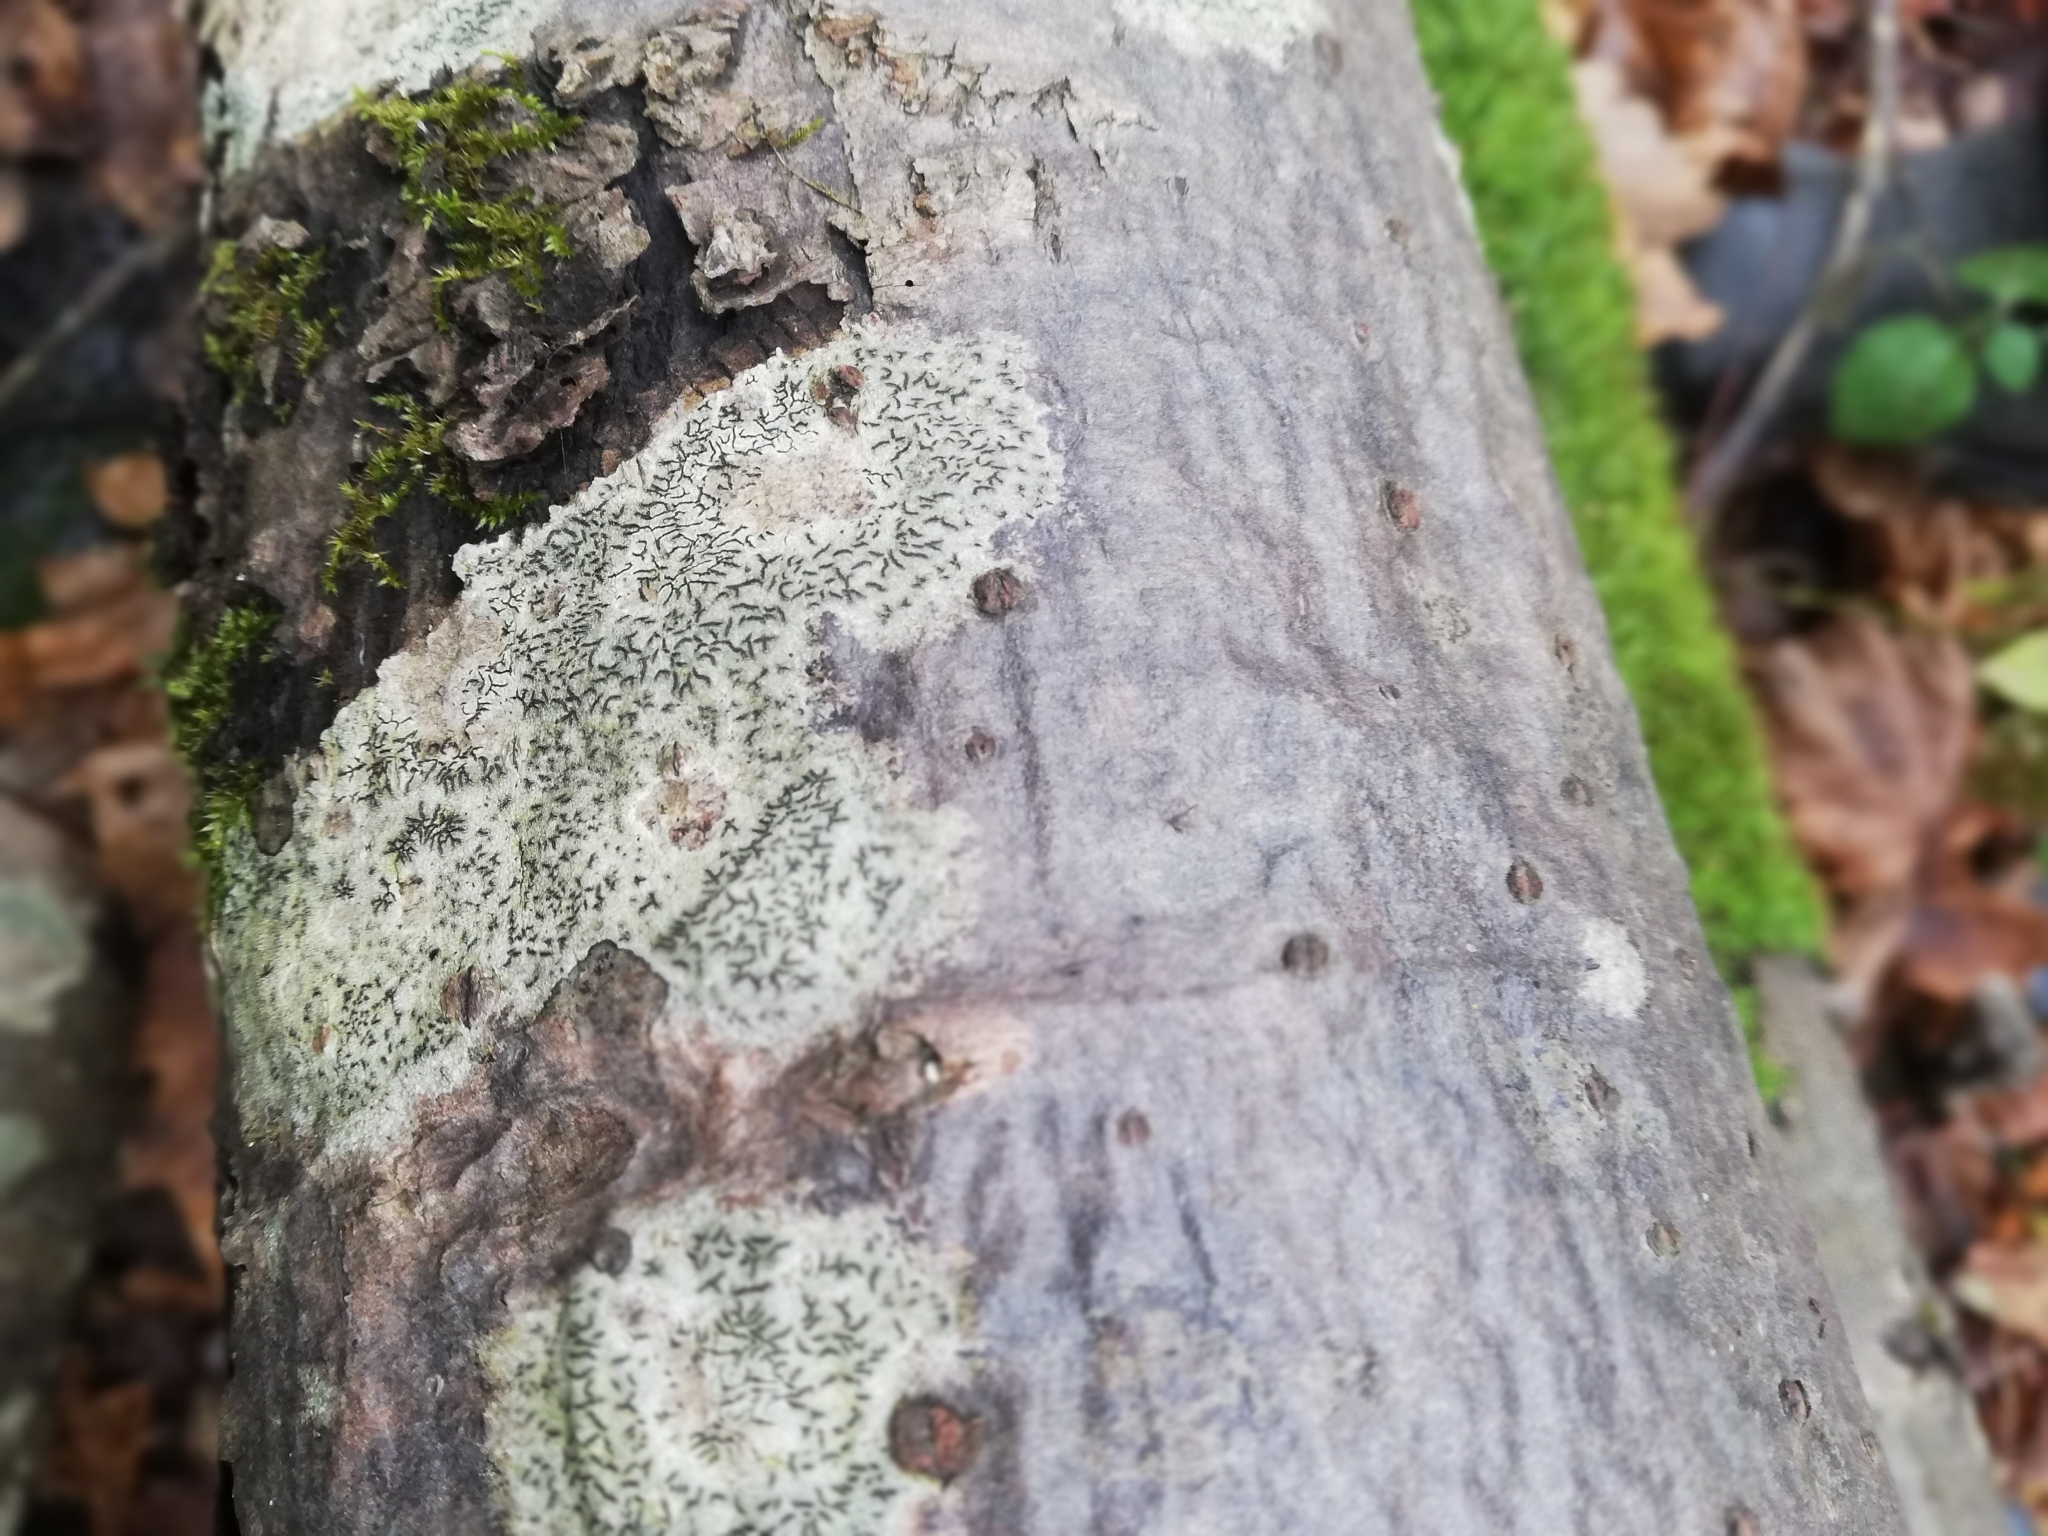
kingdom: Fungi
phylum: Ascomycota
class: Lecanoromycetes
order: Ostropales
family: Graphidaceae
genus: Graphis
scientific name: Graphis scripta
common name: Script lichen
